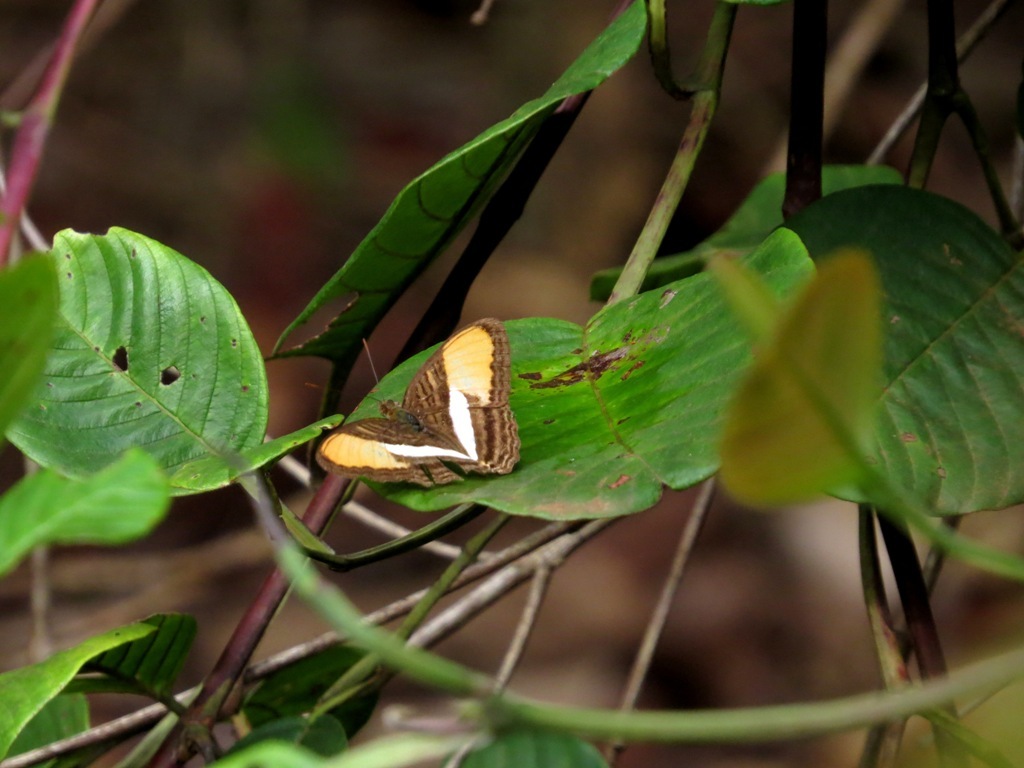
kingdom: Animalia
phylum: Arthropoda
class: Insecta
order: Lepidoptera
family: Nymphalidae
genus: Limenitis
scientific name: Limenitis cytherea
